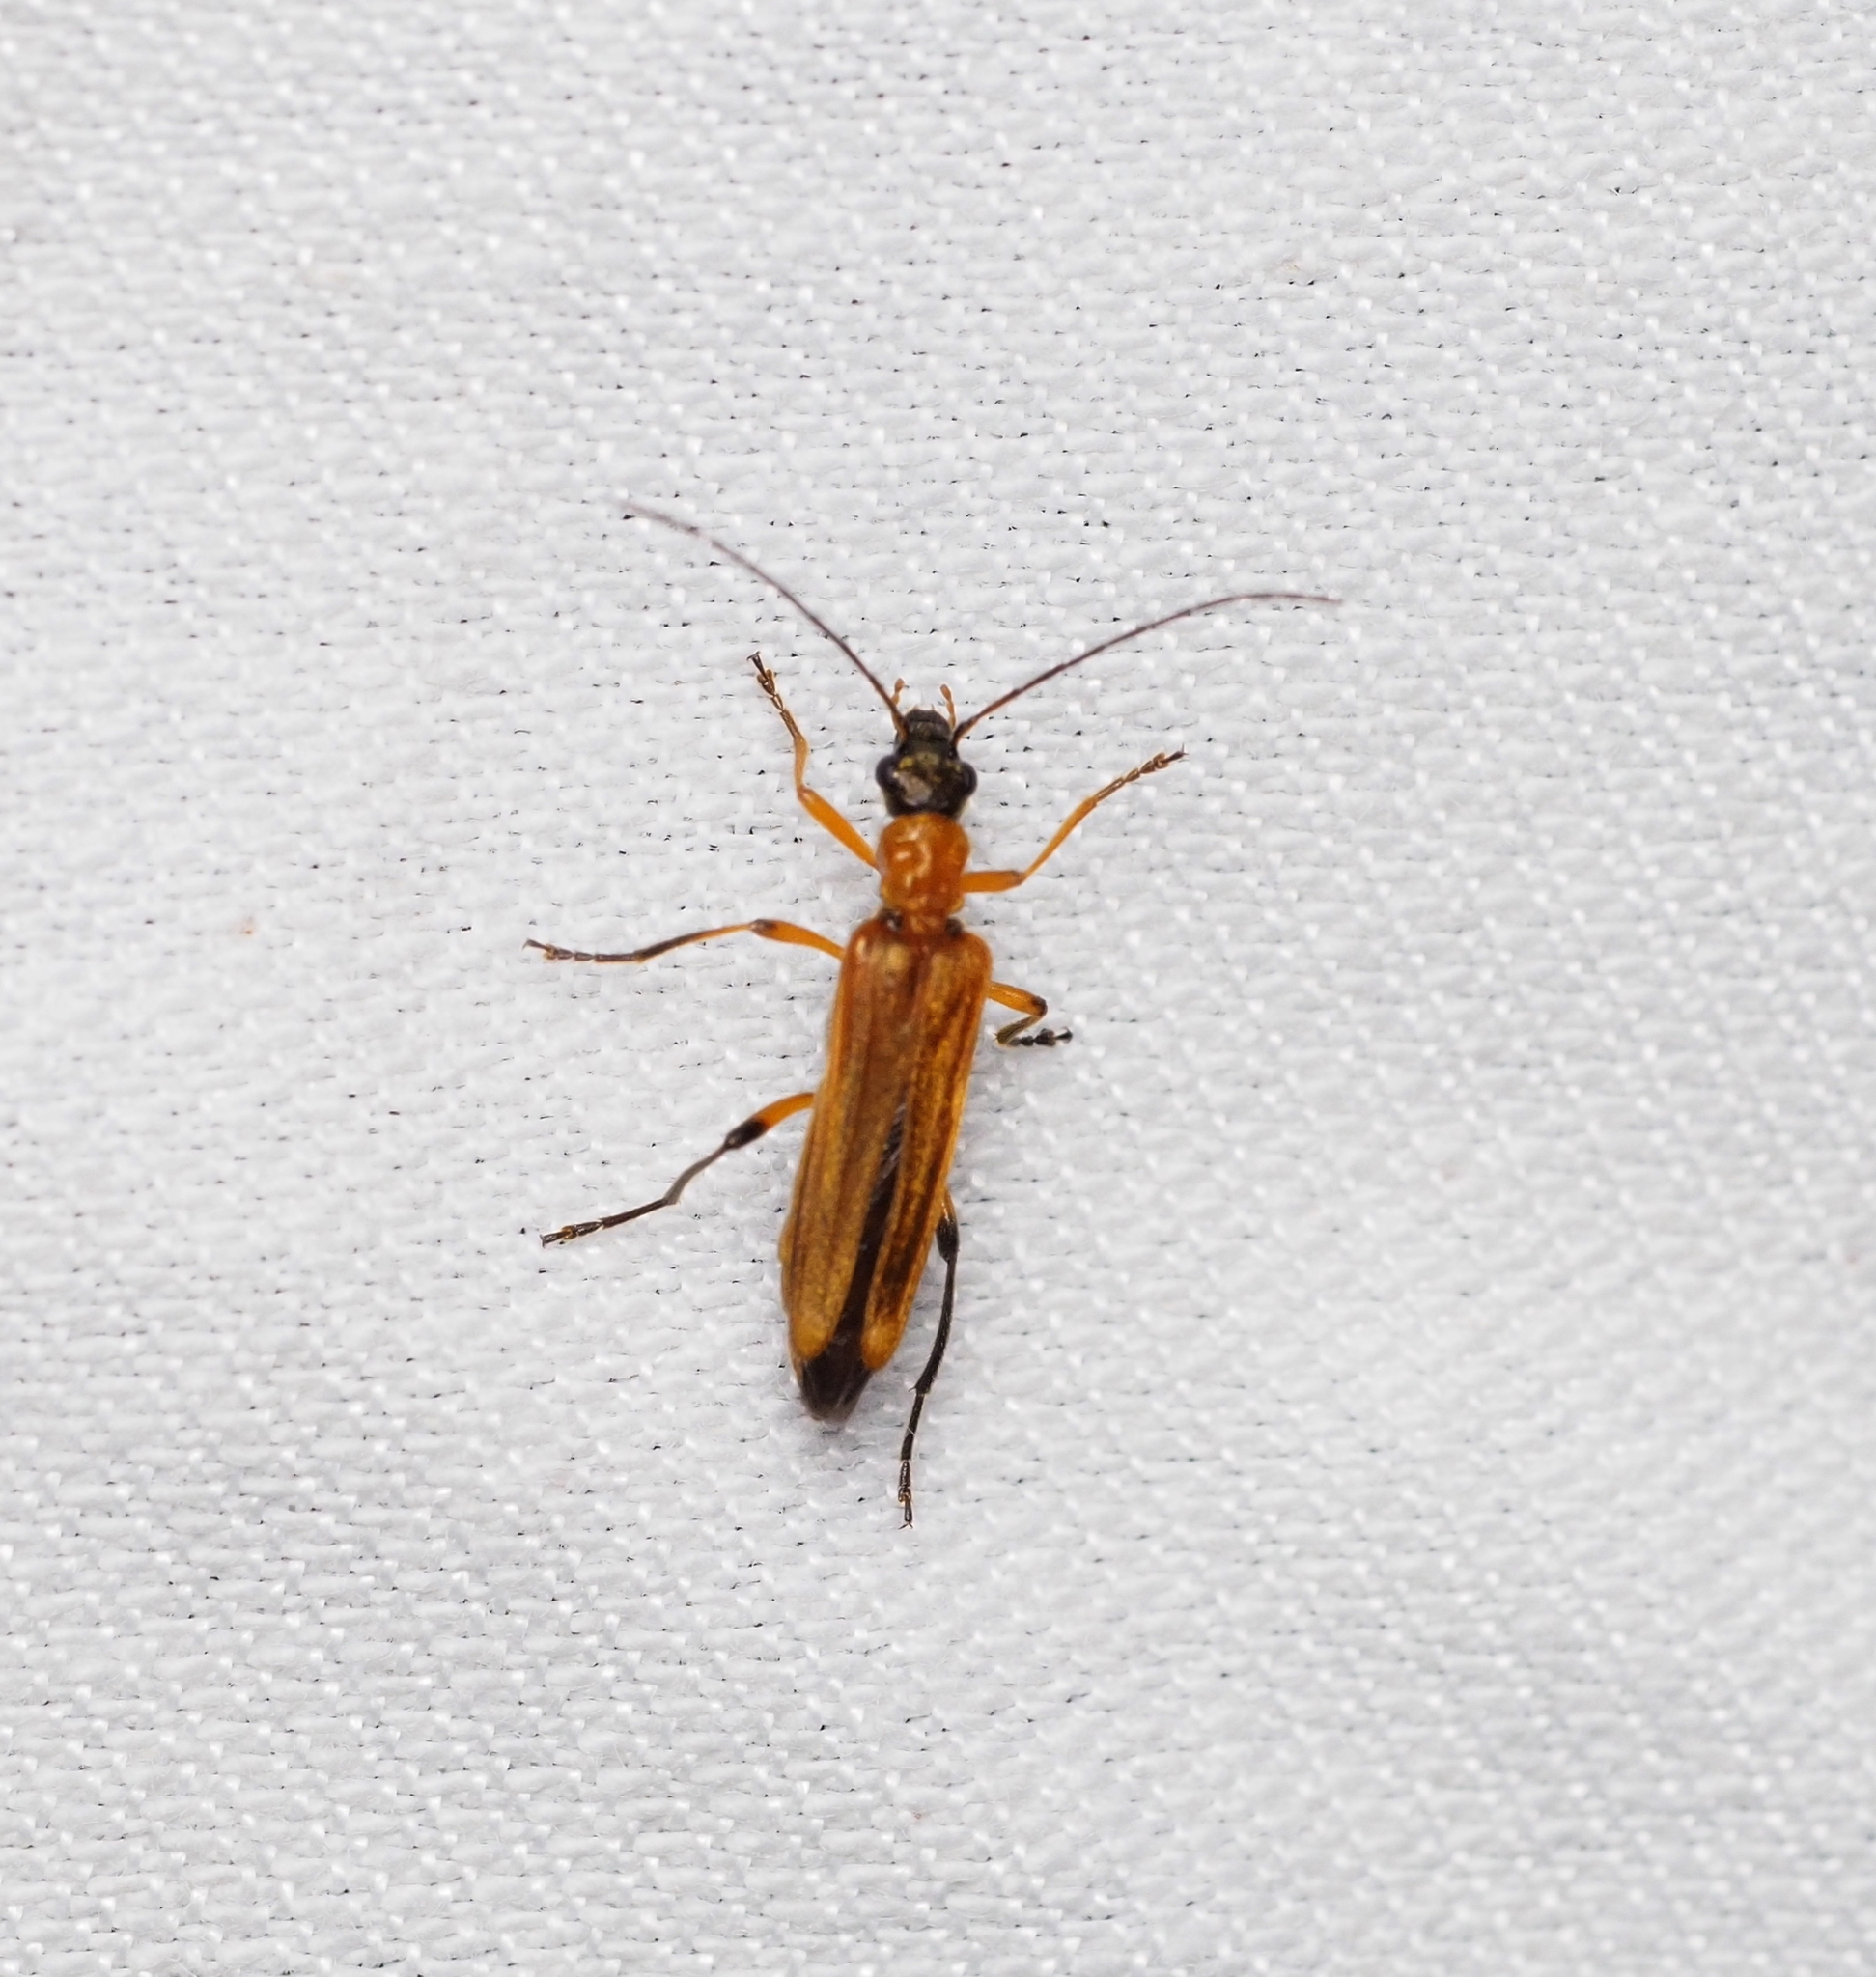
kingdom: Animalia
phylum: Arthropoda
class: Insecta
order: Coleoptera
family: Oedemeridae
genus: Oedemera
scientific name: Oedemera podagrariae
